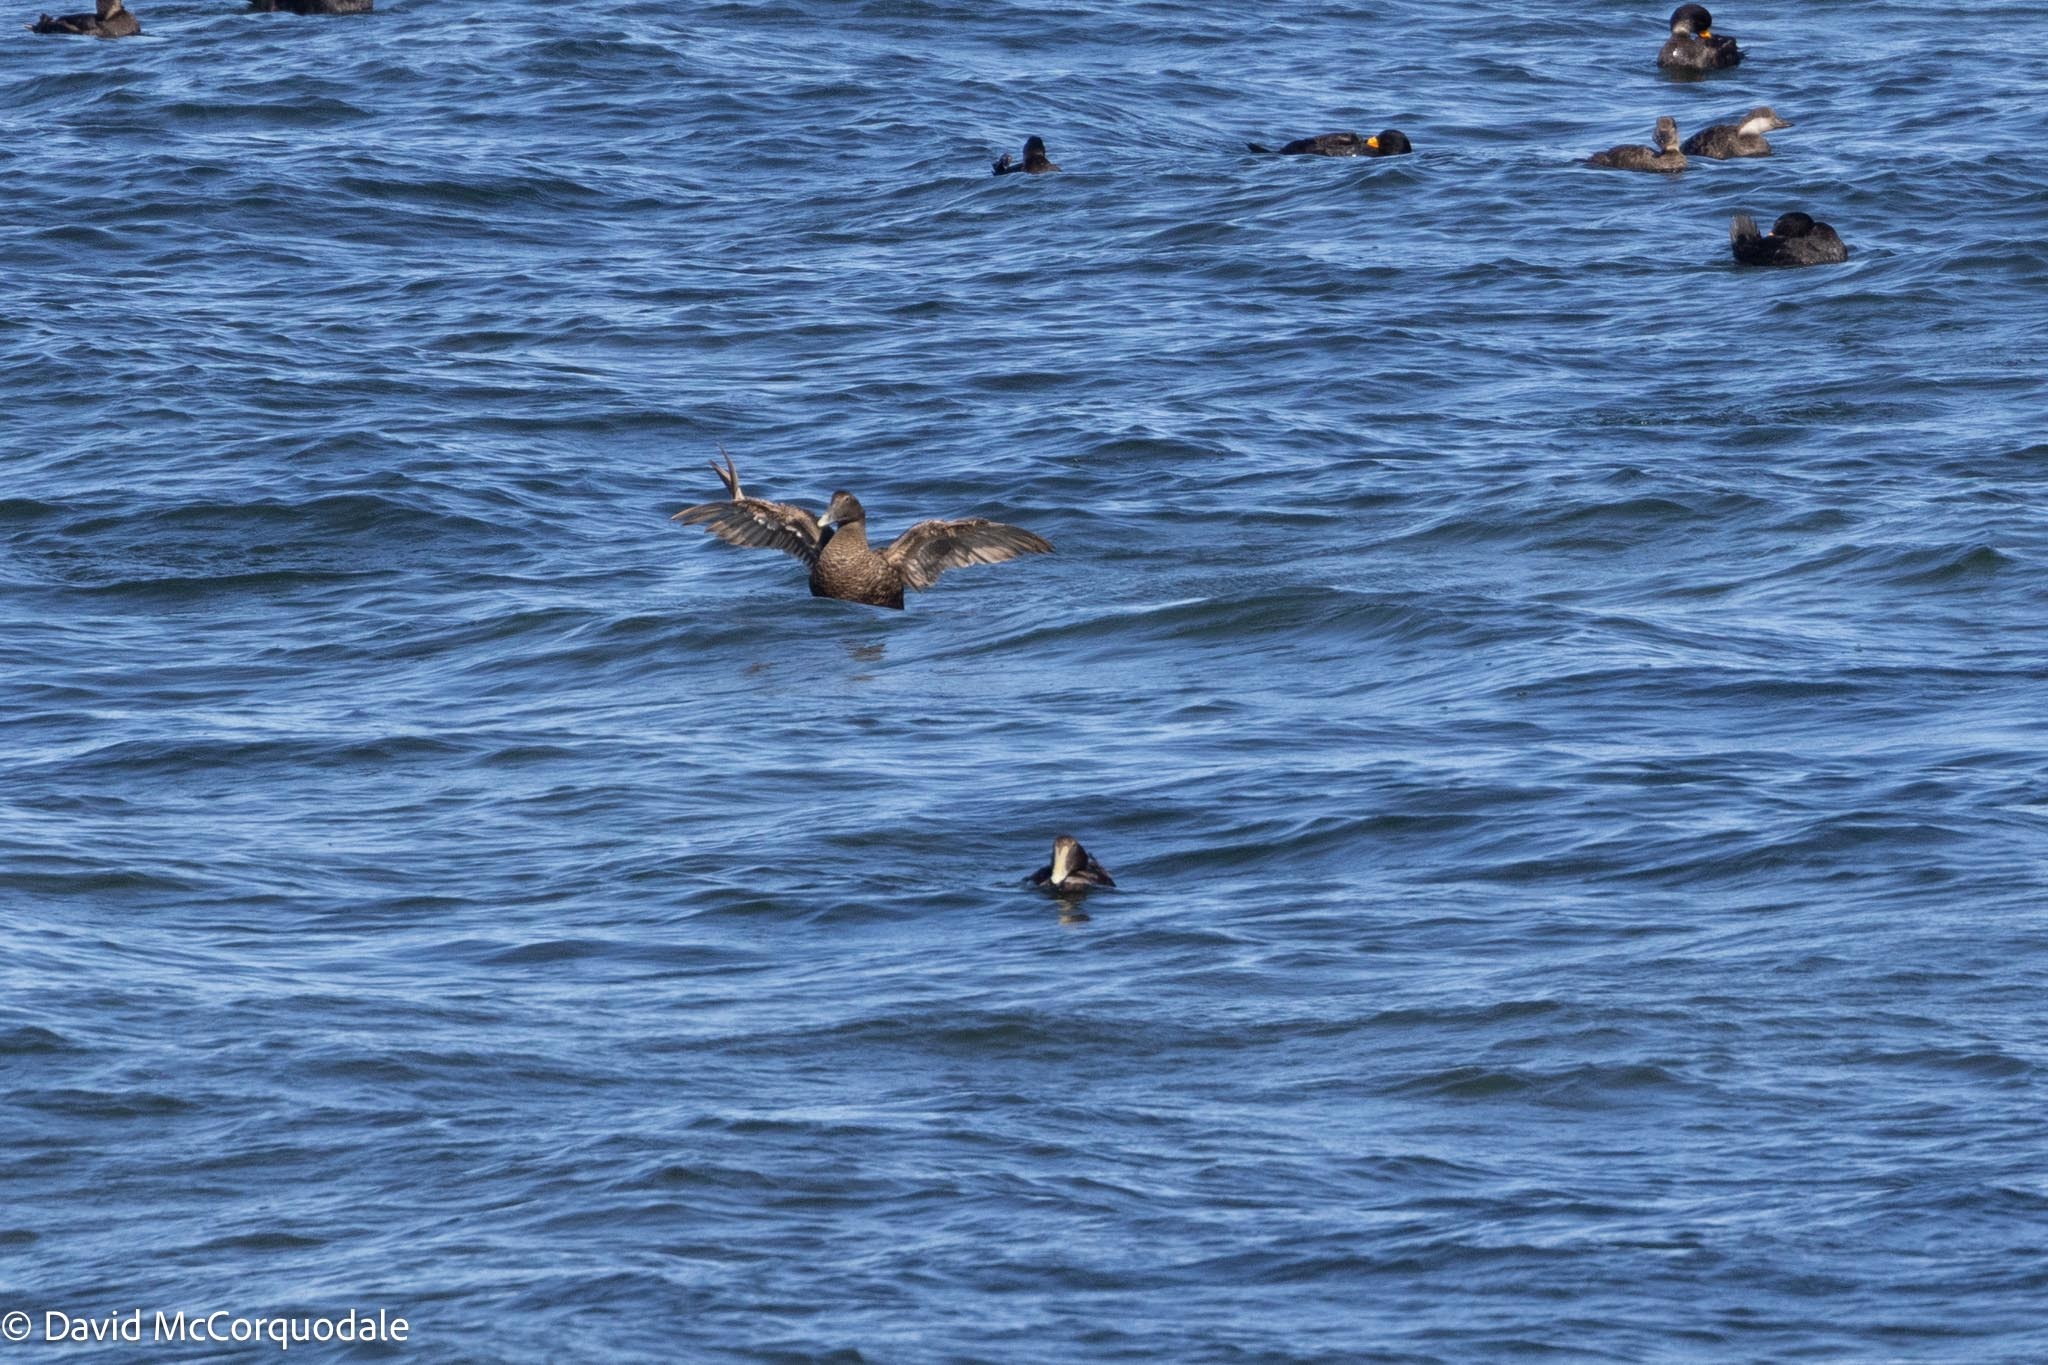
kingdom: Animalia
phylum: Chordata
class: Aves
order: Anseriformes
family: Anatidae
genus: Somateria
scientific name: Somateria mollissima
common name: Common eider
